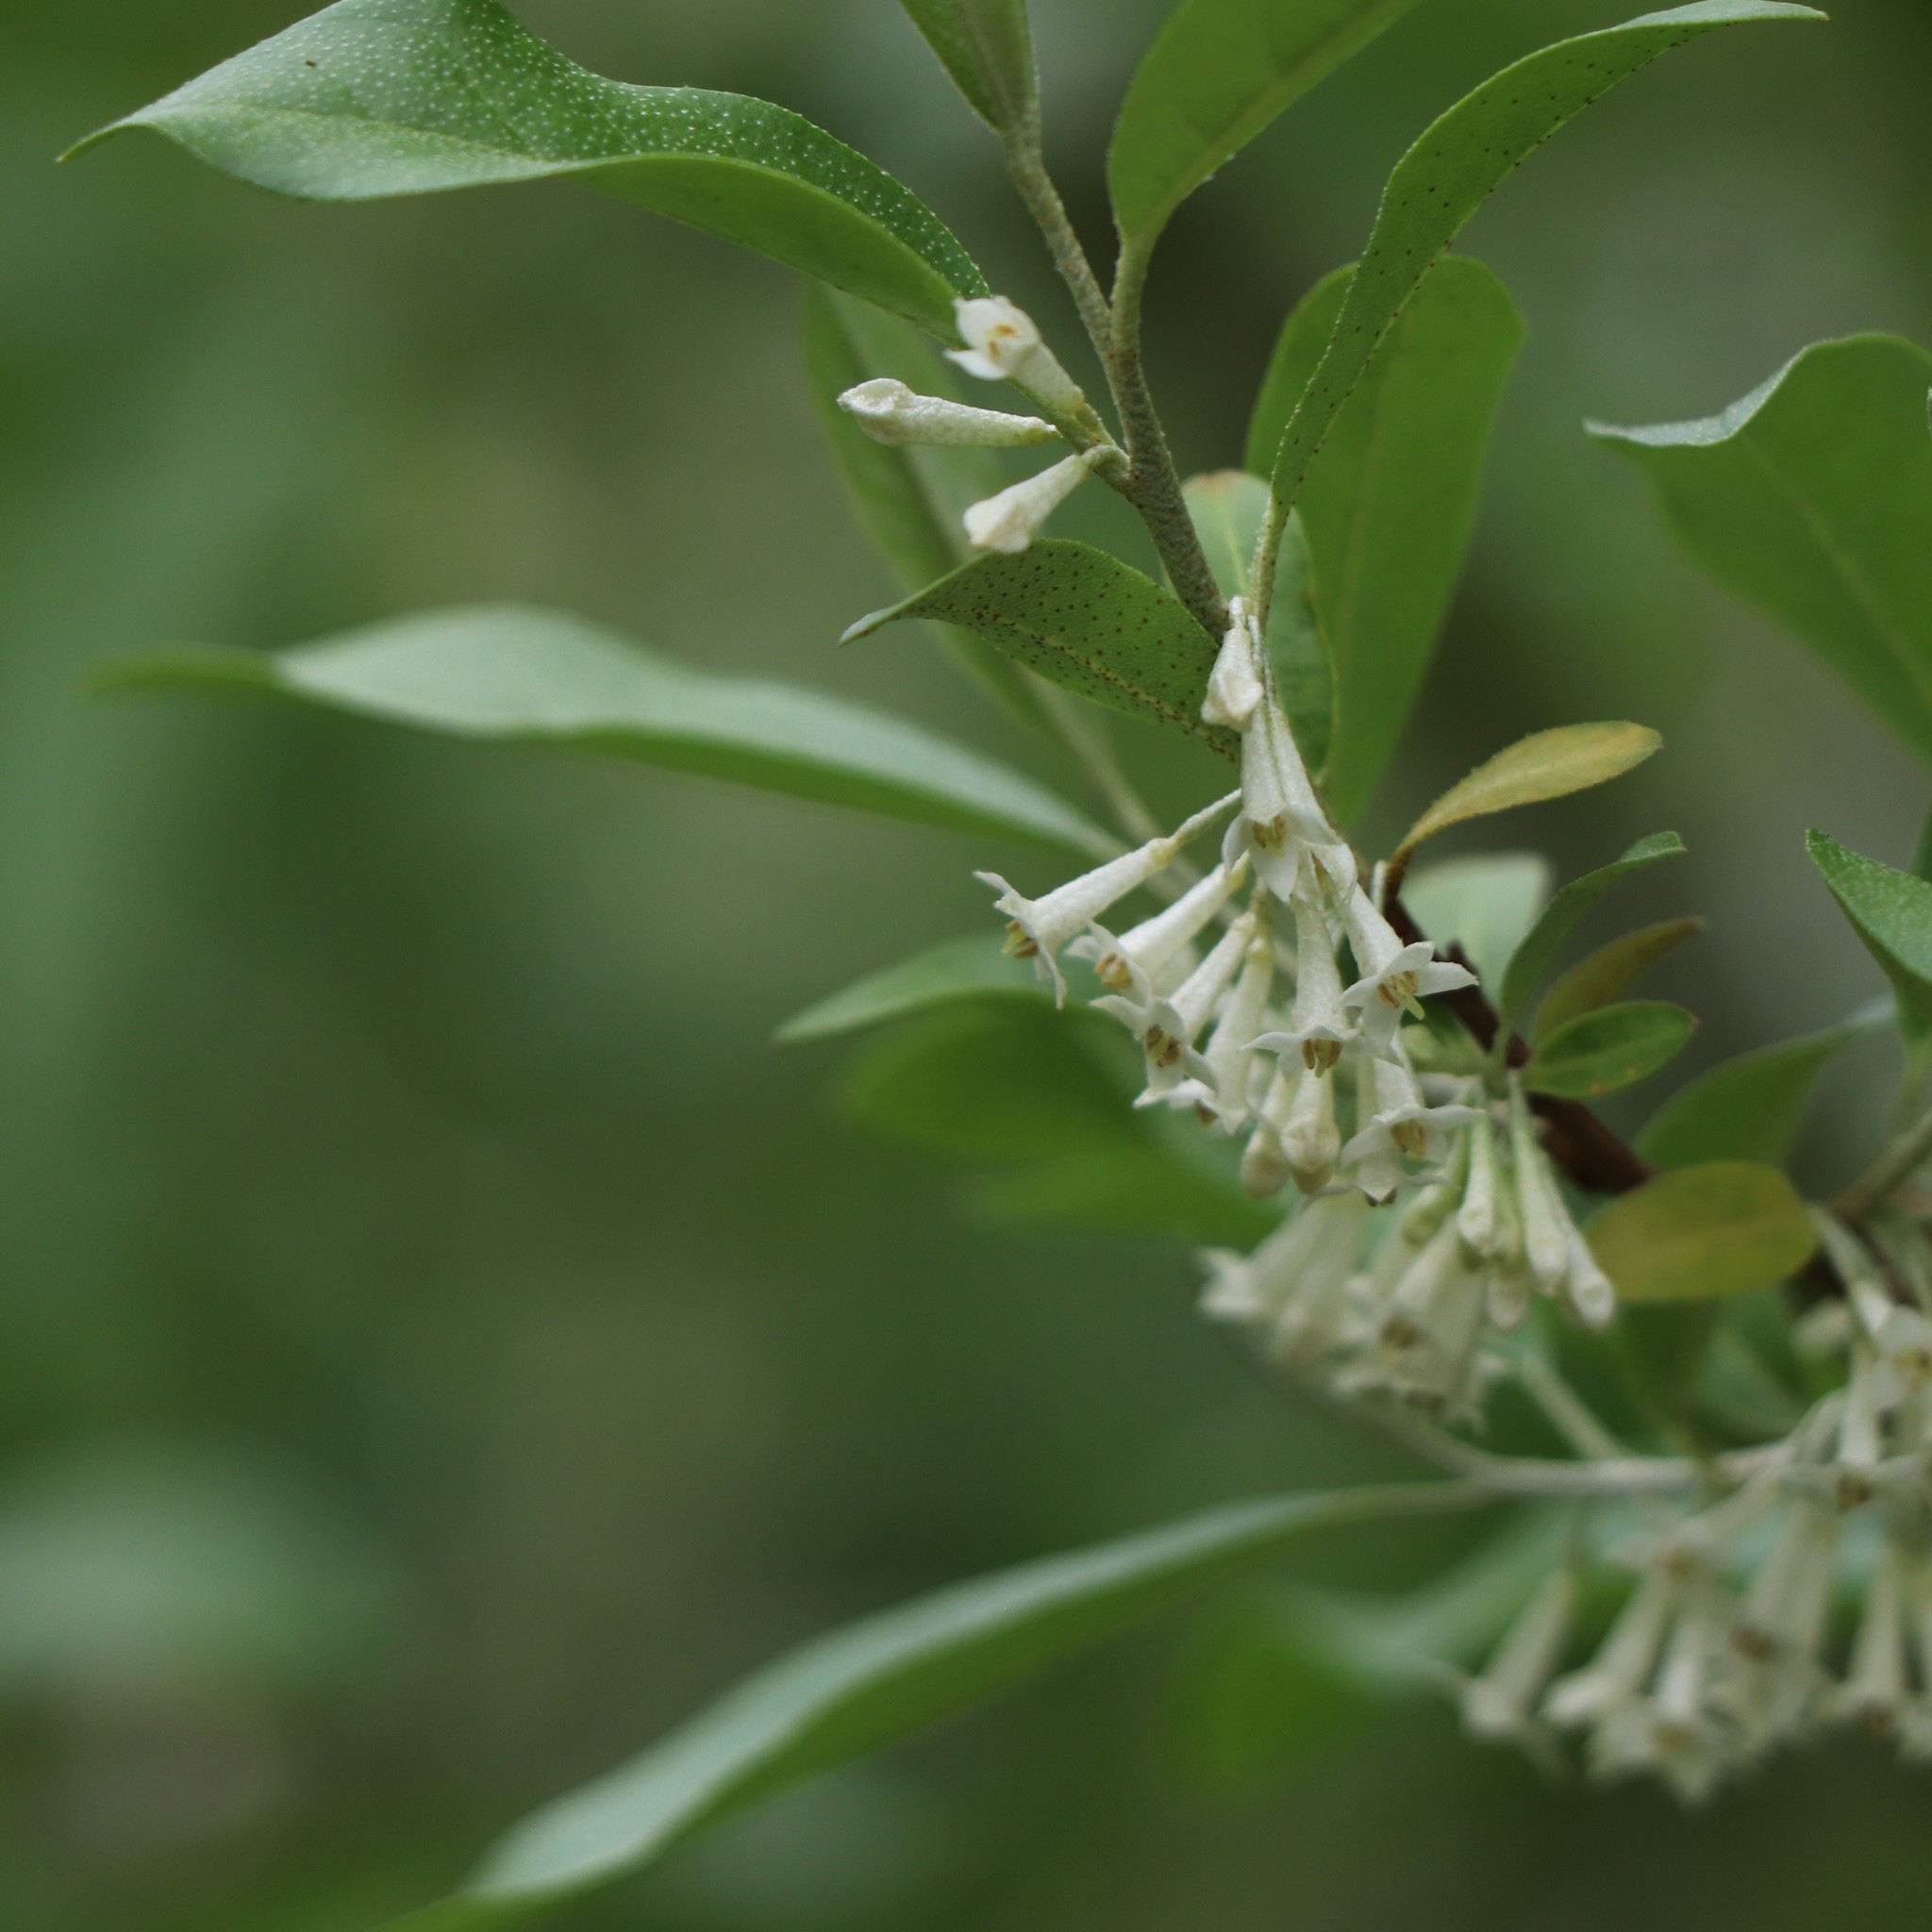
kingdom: Plantae
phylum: Tracheophyta
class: Magnoliopsida
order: Rosales
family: Elaeagnaceae
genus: Elaeagnus
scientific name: Elaeagnus umbellata
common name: Autumn olive
